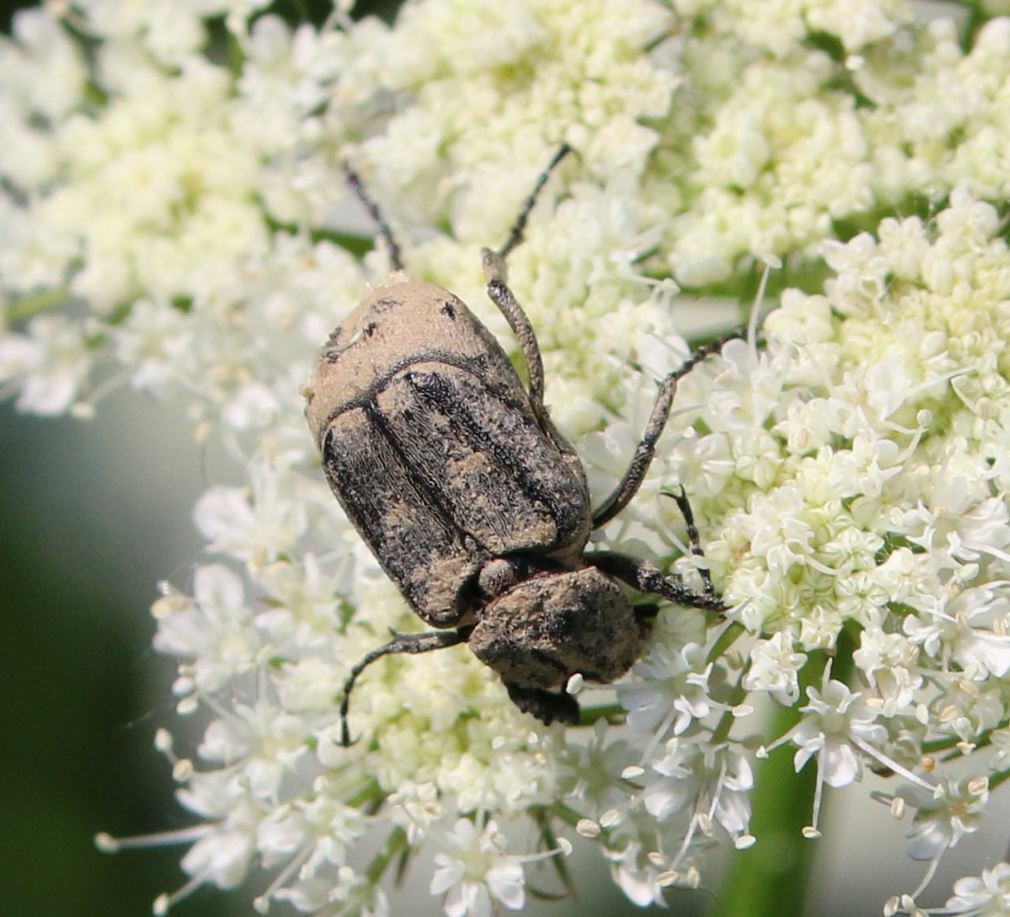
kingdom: Animalia
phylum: Arthropoda
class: Insecta
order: Coleoptera
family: Scarabaeidae
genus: Valgus
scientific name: Valgus hemipterus
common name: Bug flower chafer
